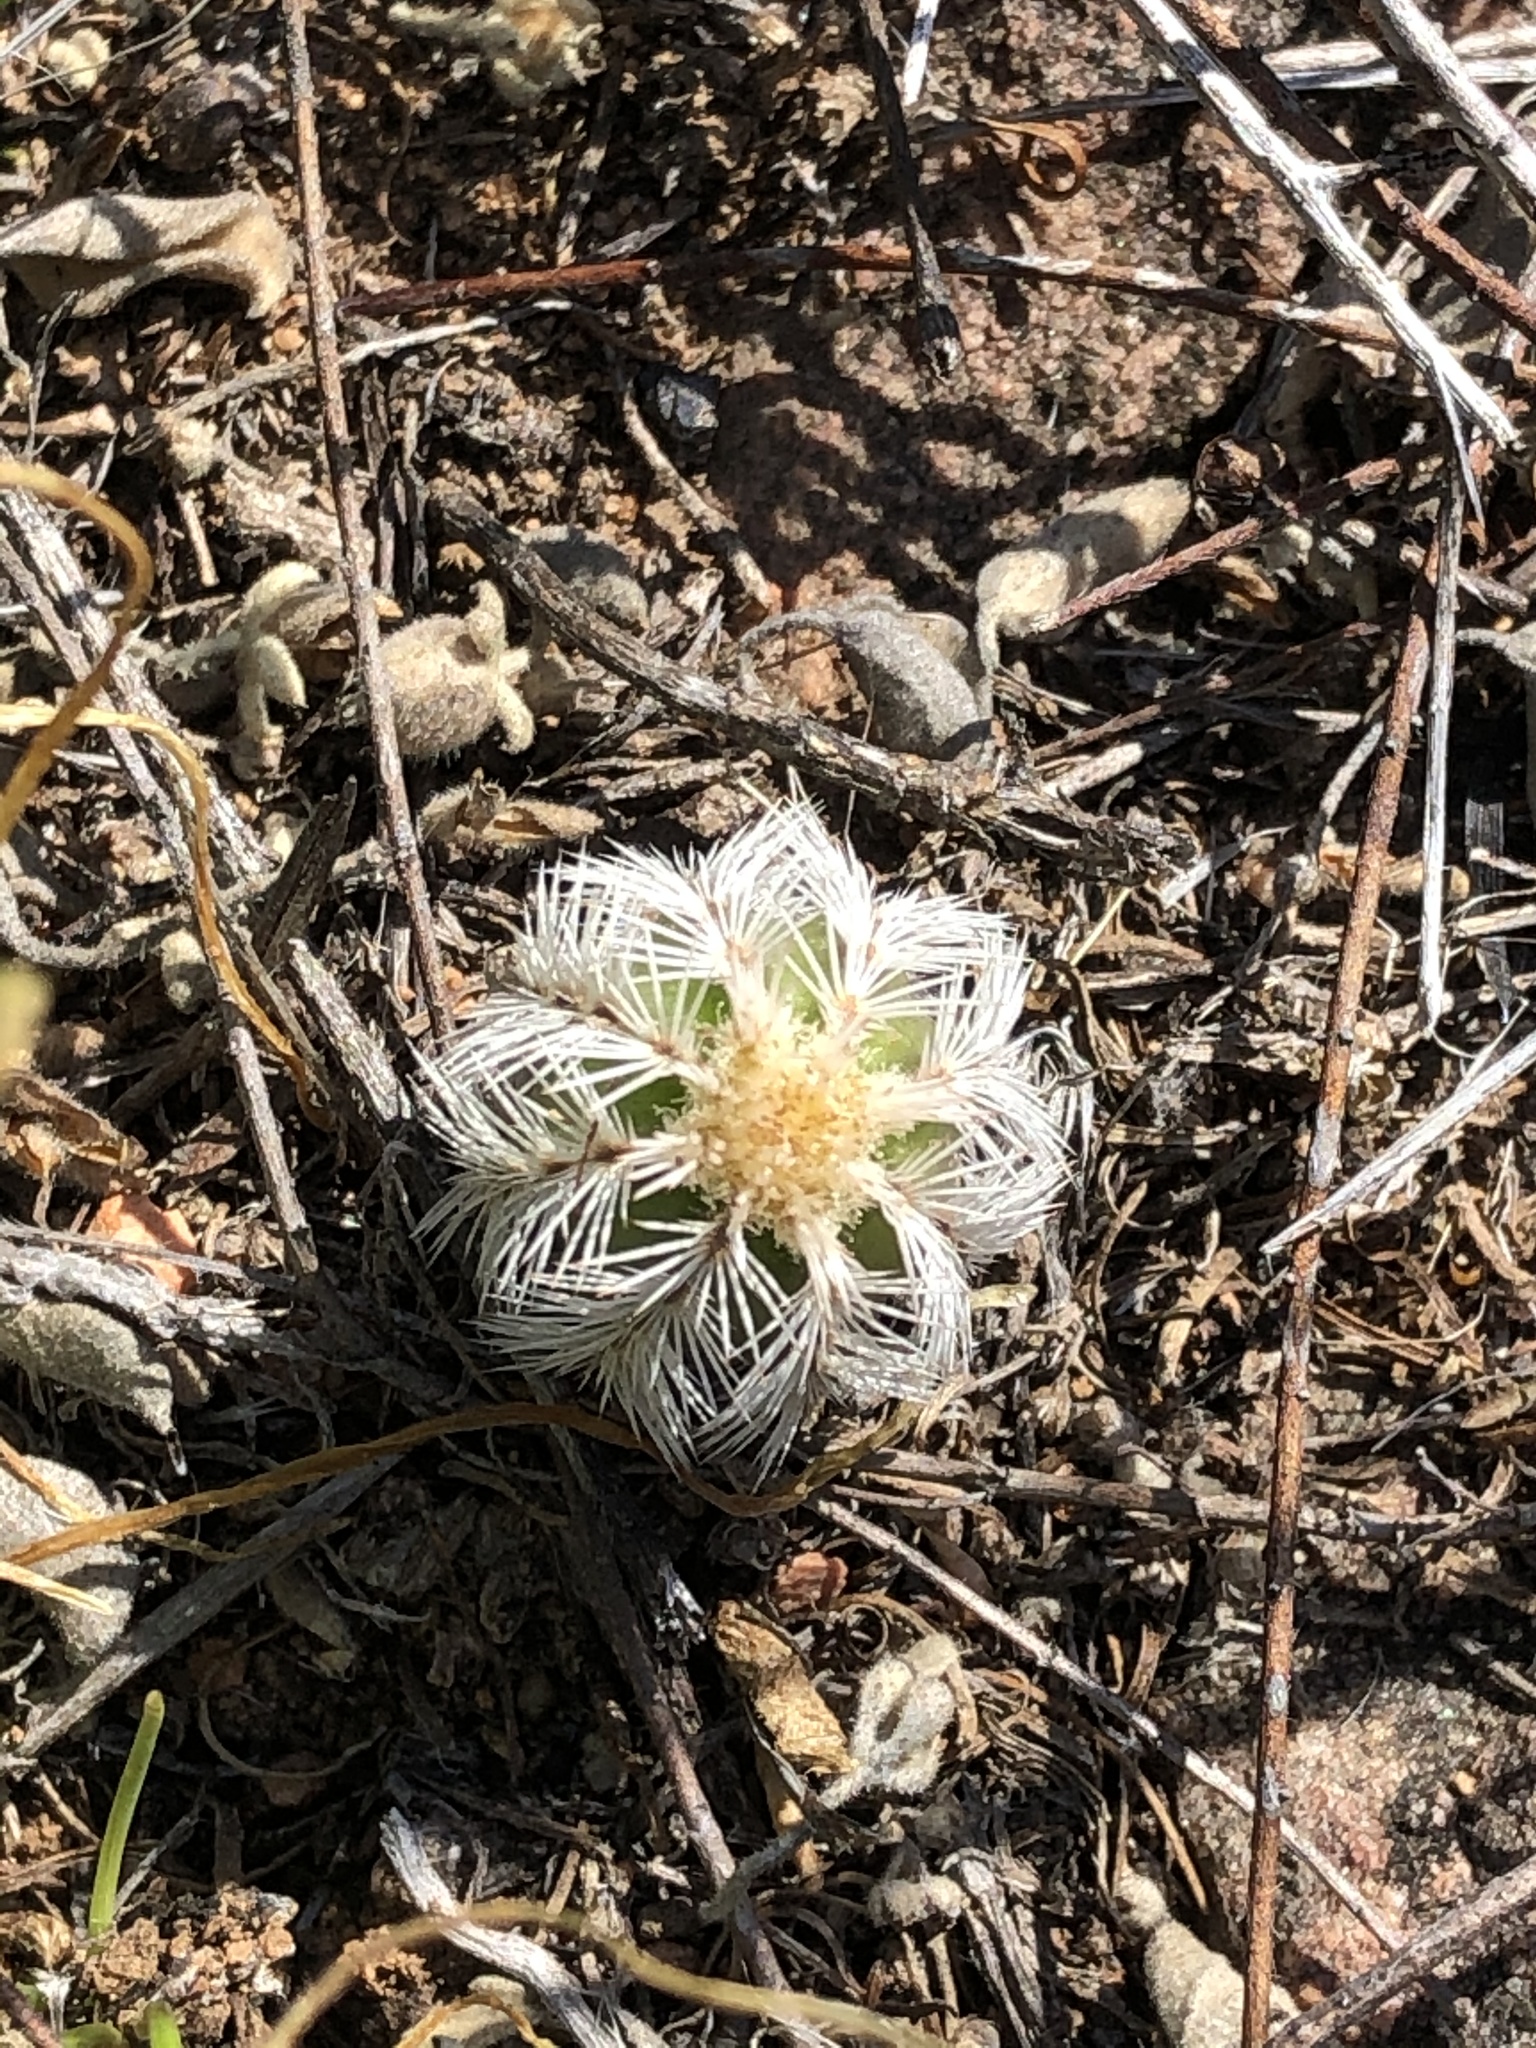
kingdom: Plantae
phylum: Tracheophyta
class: Magnoliopsida
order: Caryophyllales
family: Cactaceae
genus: Echinocereus
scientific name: Echinocereus reichenbachii
